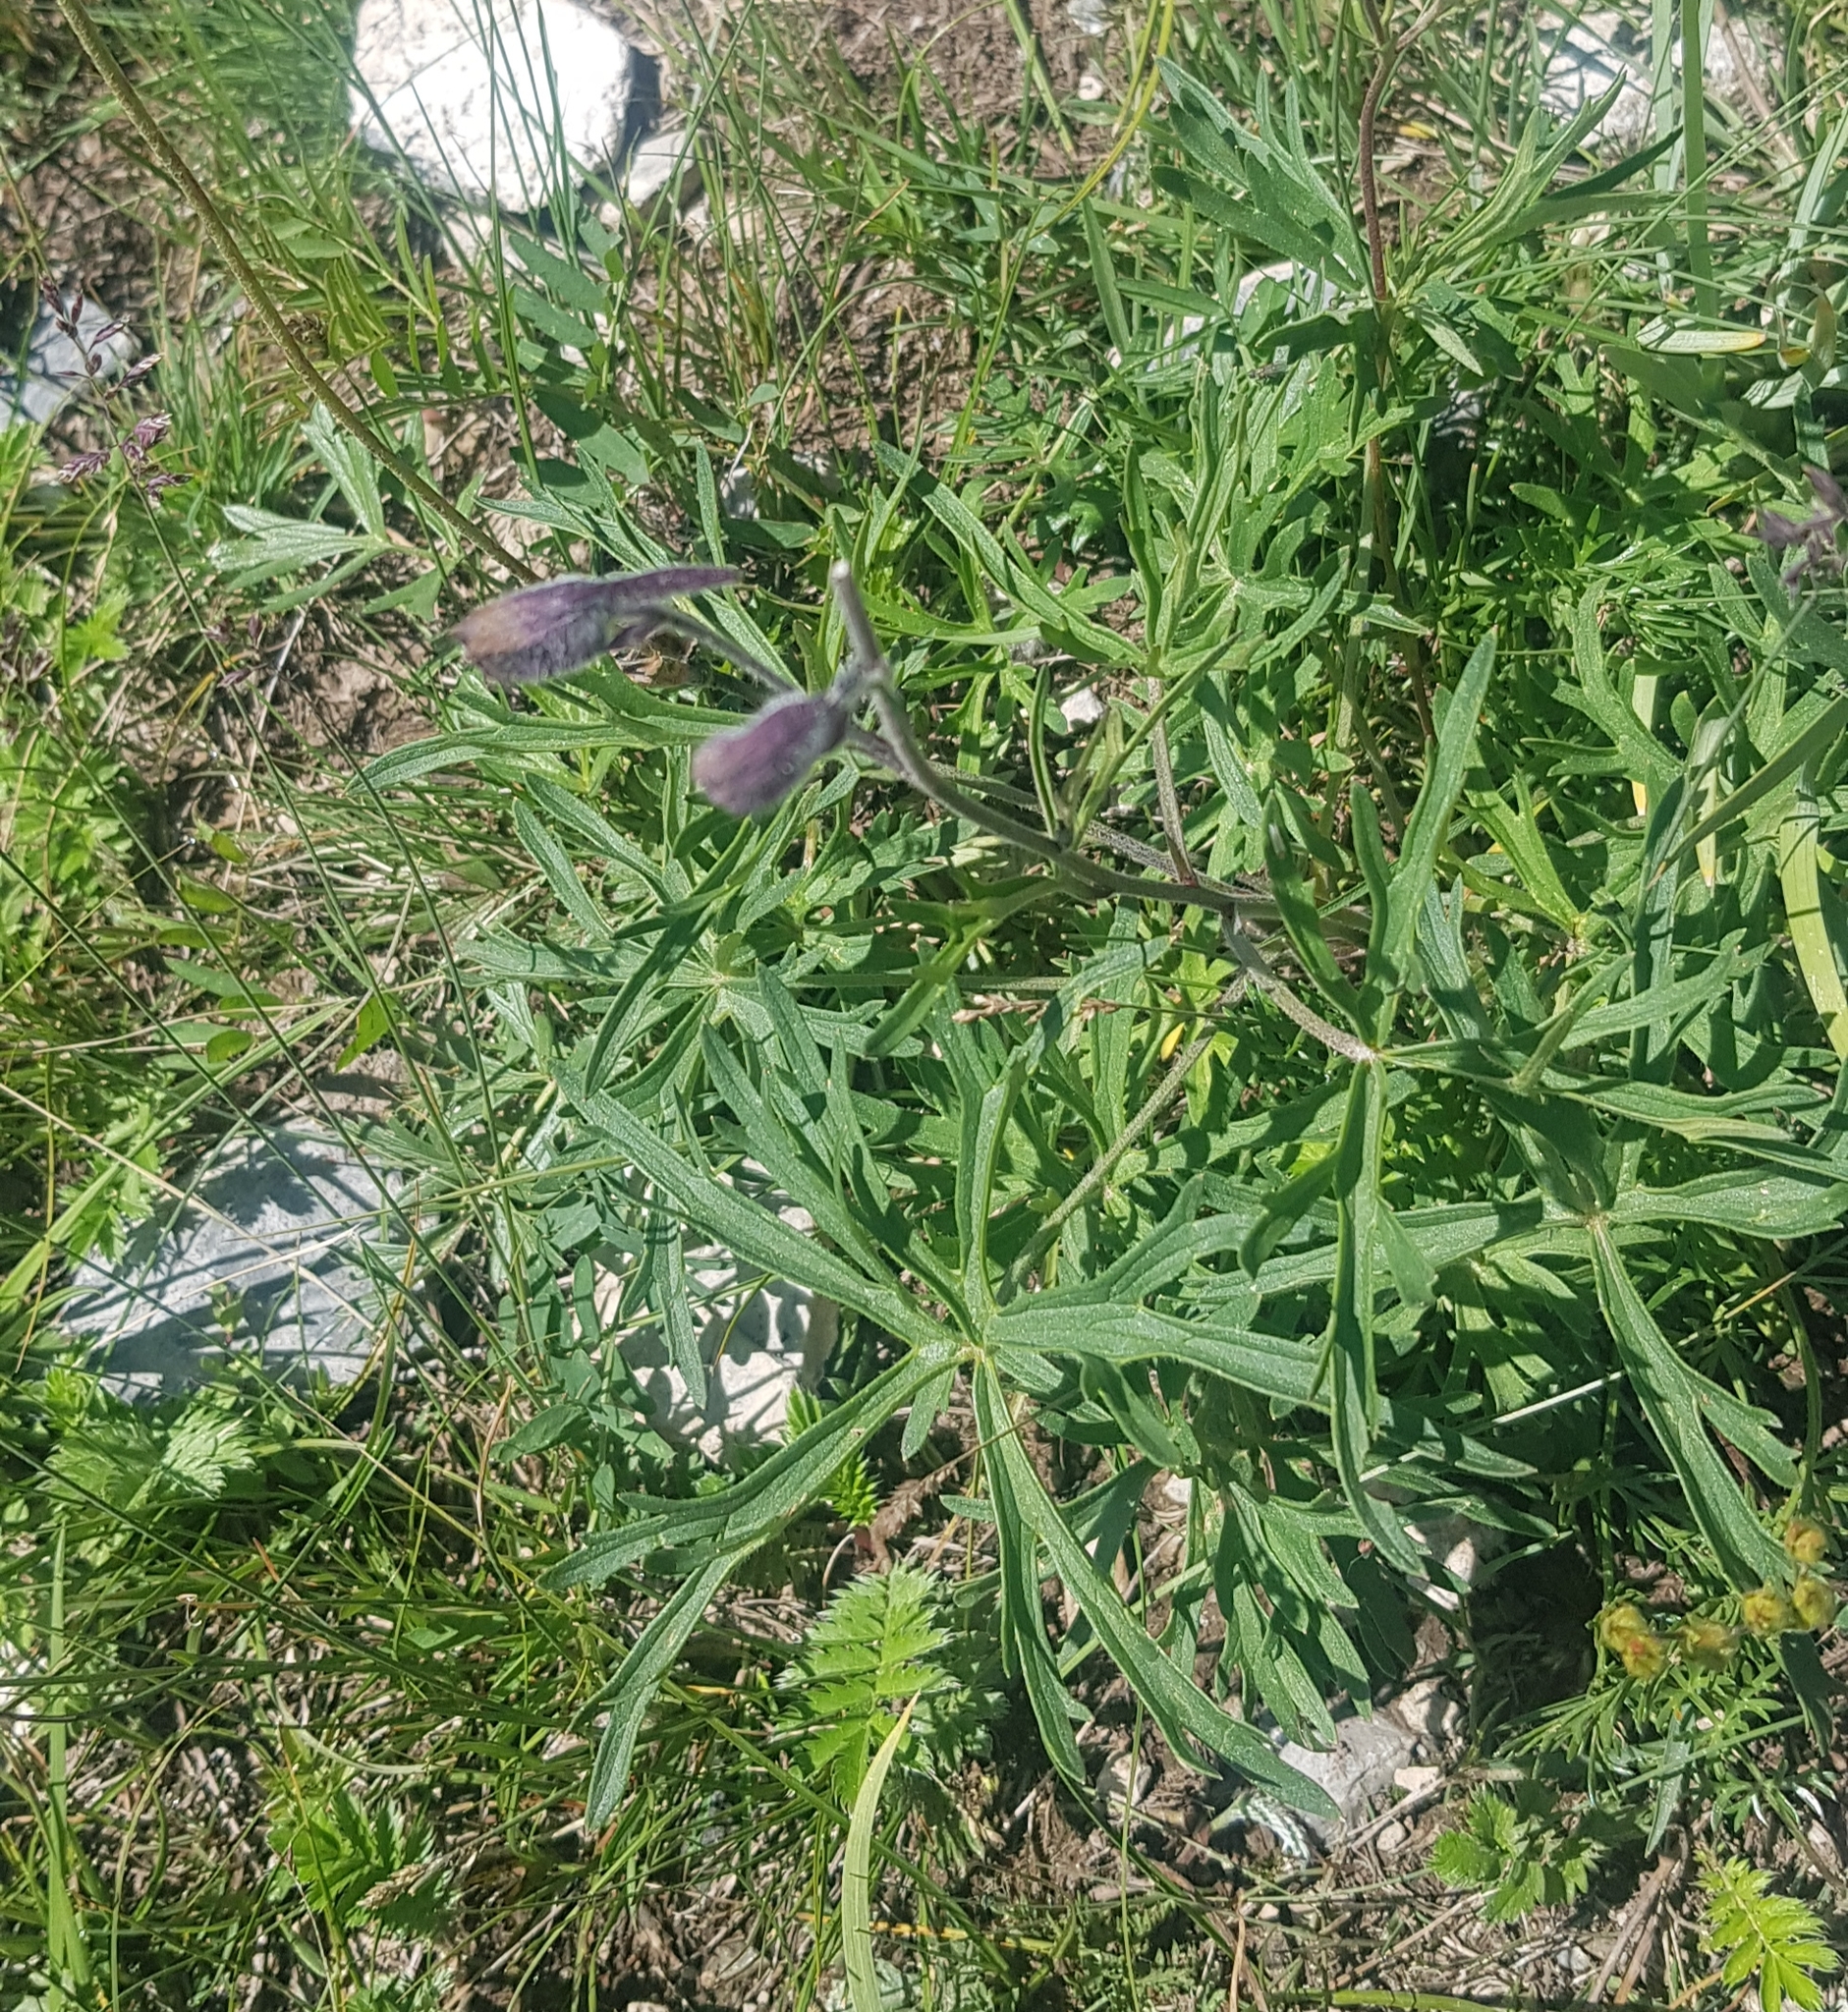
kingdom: Plantae
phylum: Tracheophyta
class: Magnoliopsida
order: Ranunculales
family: Ranunculaceae
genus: Delphinium
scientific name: Delphinium triste
